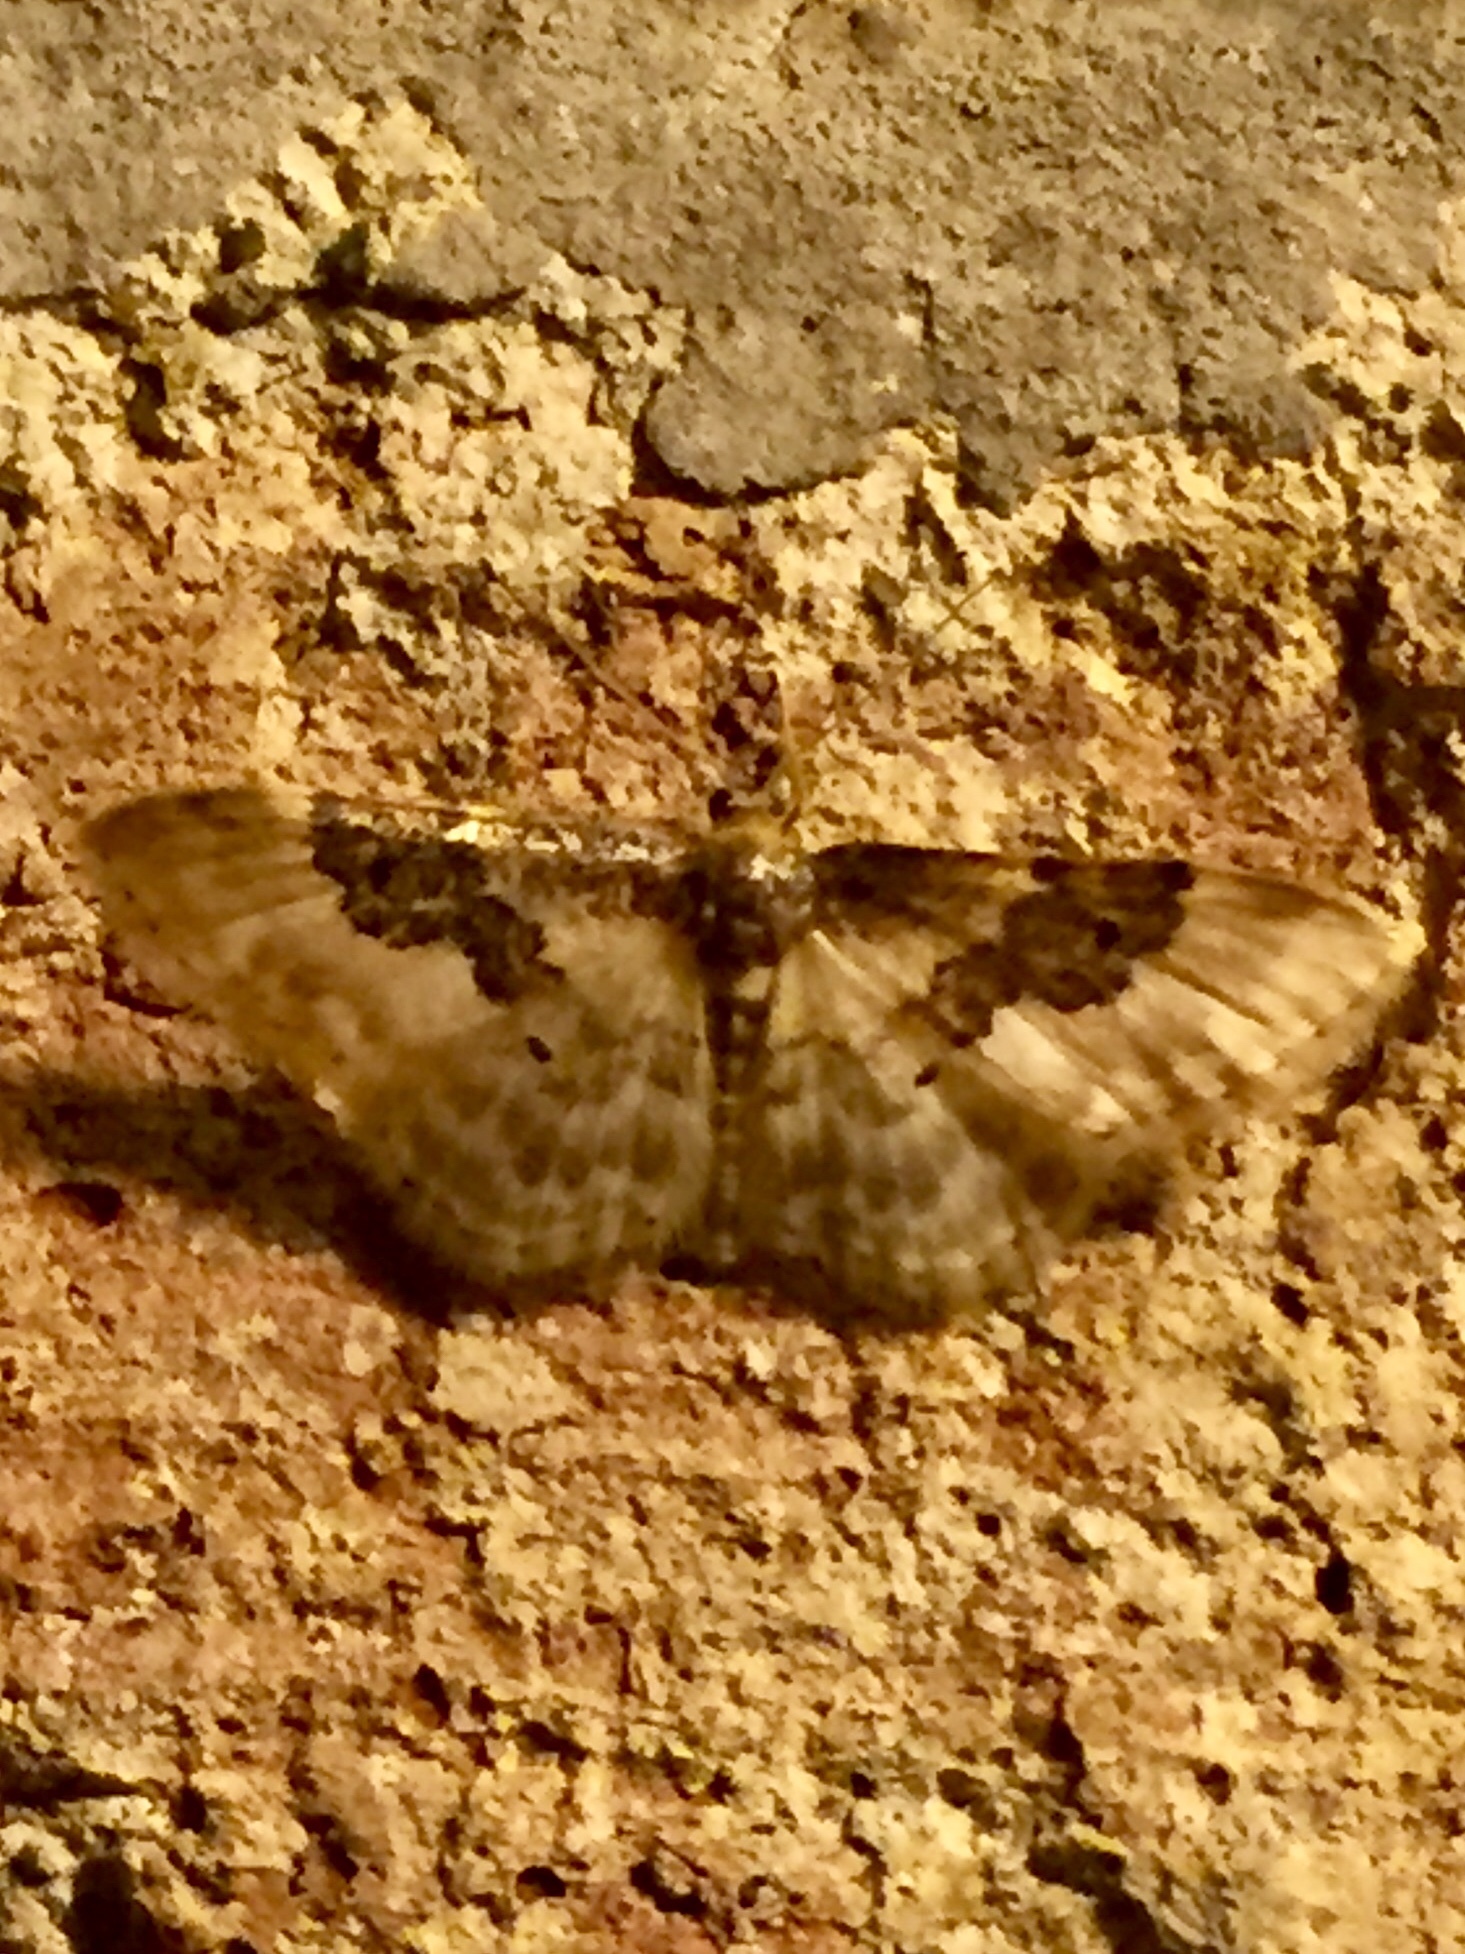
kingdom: Animalia
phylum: Arthropoda
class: Insecta
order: Lepidoptera
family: Geometridae
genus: Idaea
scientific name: Idaea rusticata
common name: Least carpet
